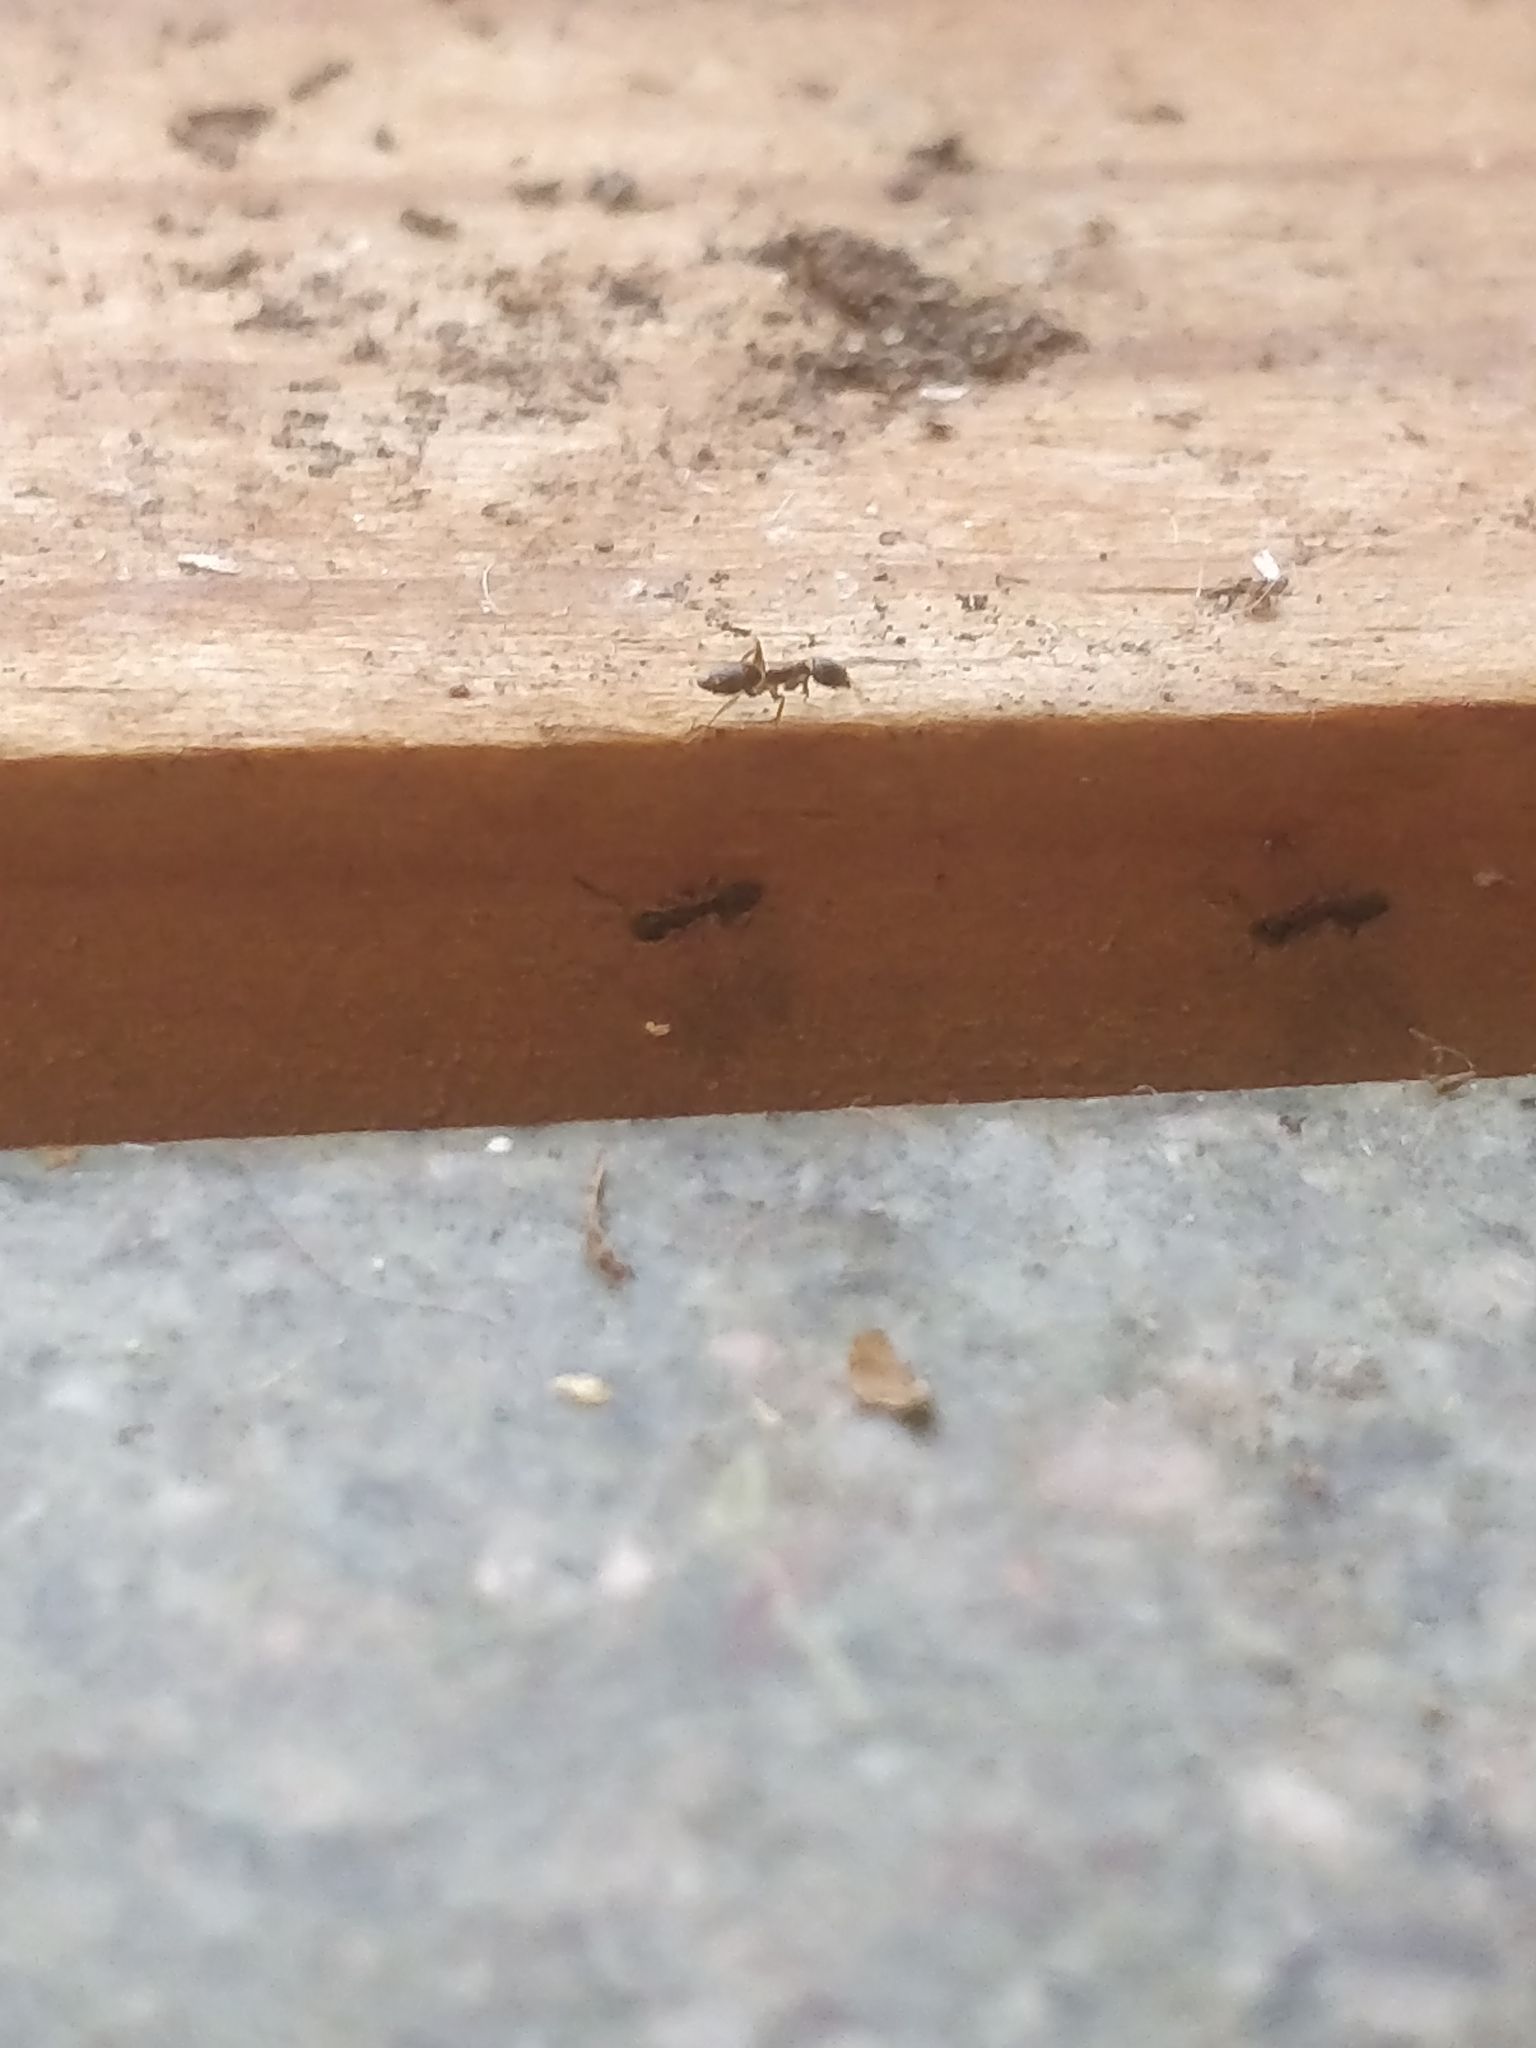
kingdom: Animalia
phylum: Arthropoda
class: Insecta
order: Hymenoptera
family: Formicidae
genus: Tapinoma
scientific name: Tapinoma sessile
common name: Odorous house ant
